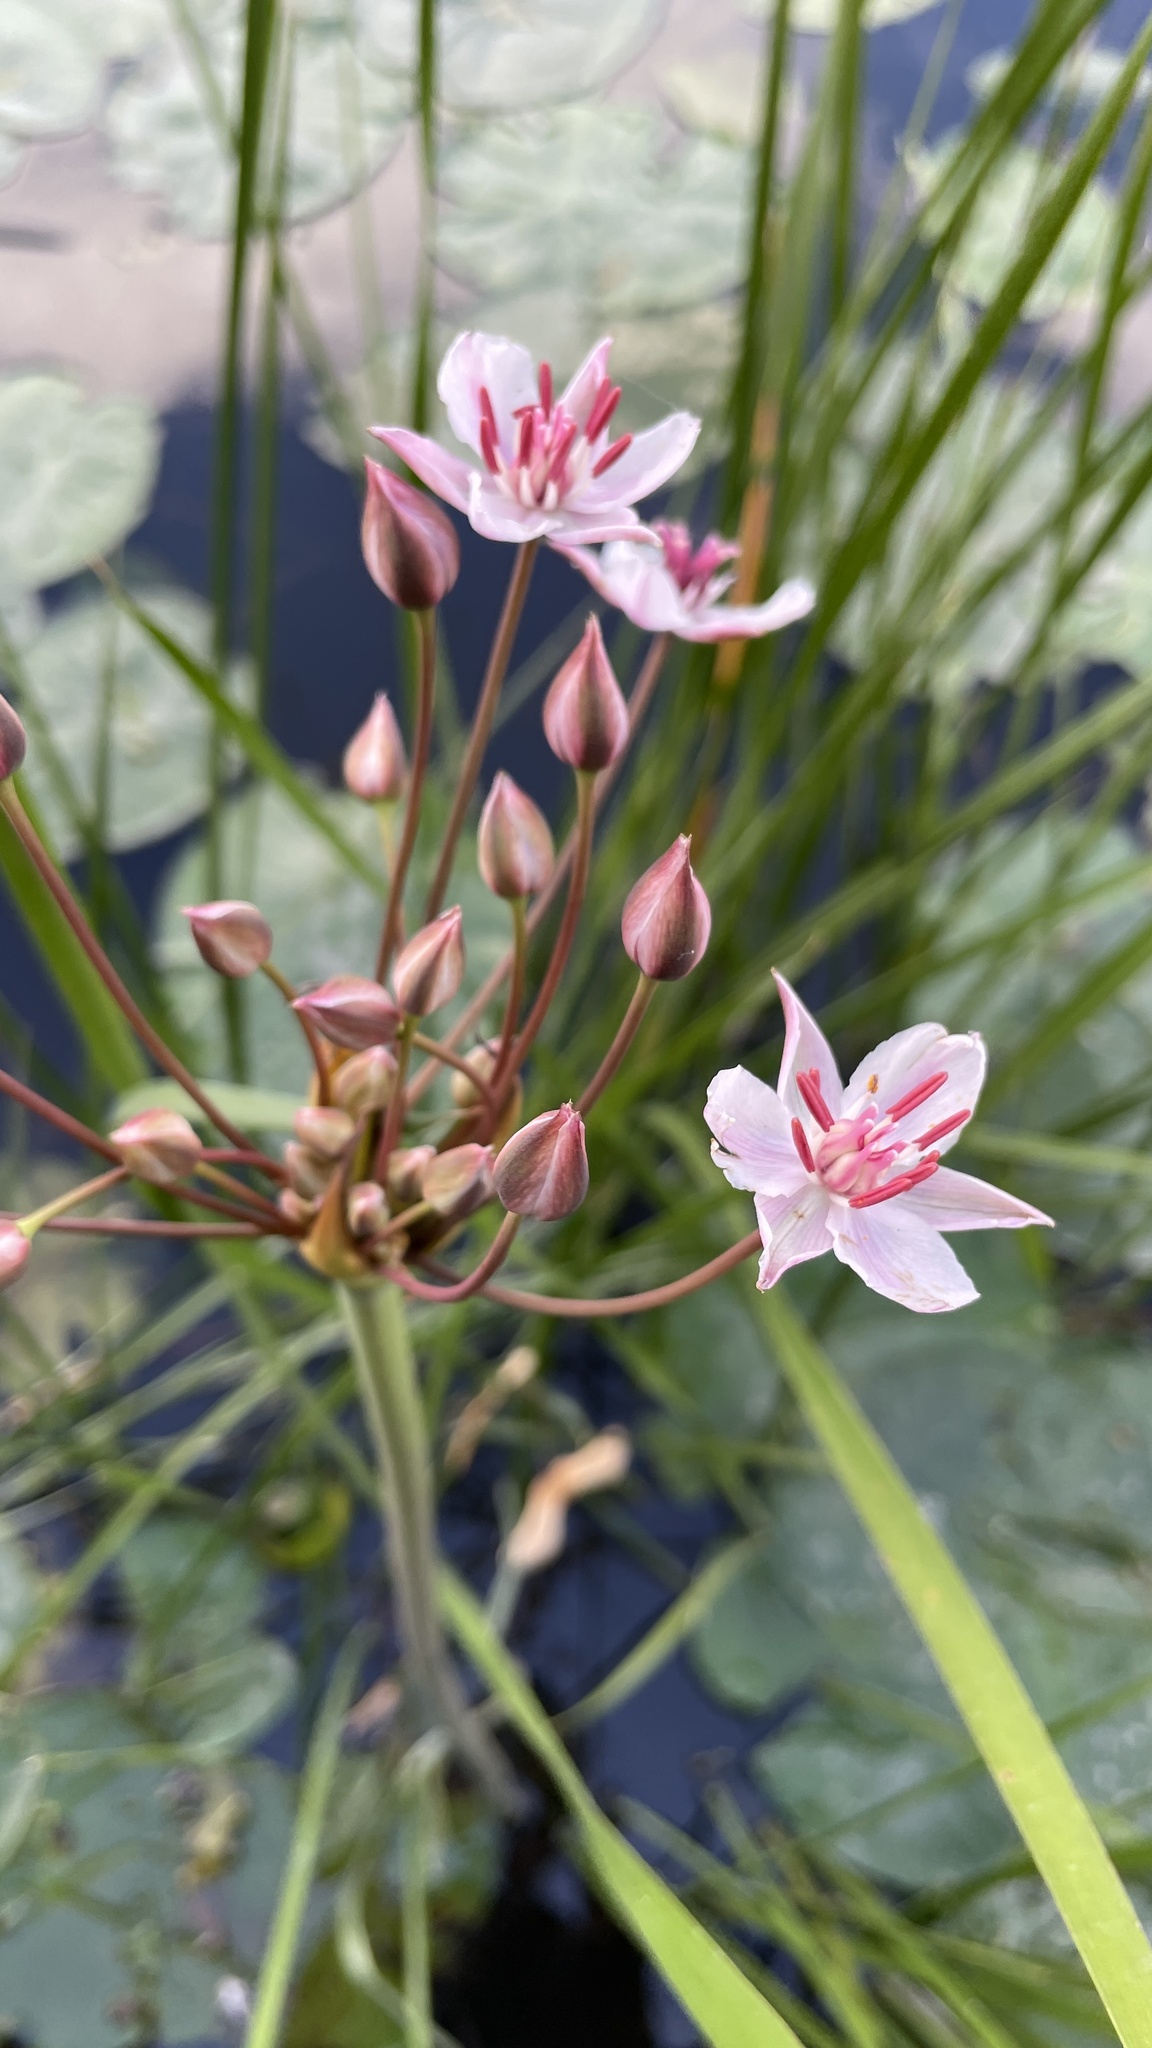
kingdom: Plantae
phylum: Tracheophyta
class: Liliopsida
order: Alismatales
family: Butomaceae
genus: Butomus
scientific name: Butomus umbellatus
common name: Flowering-rush
